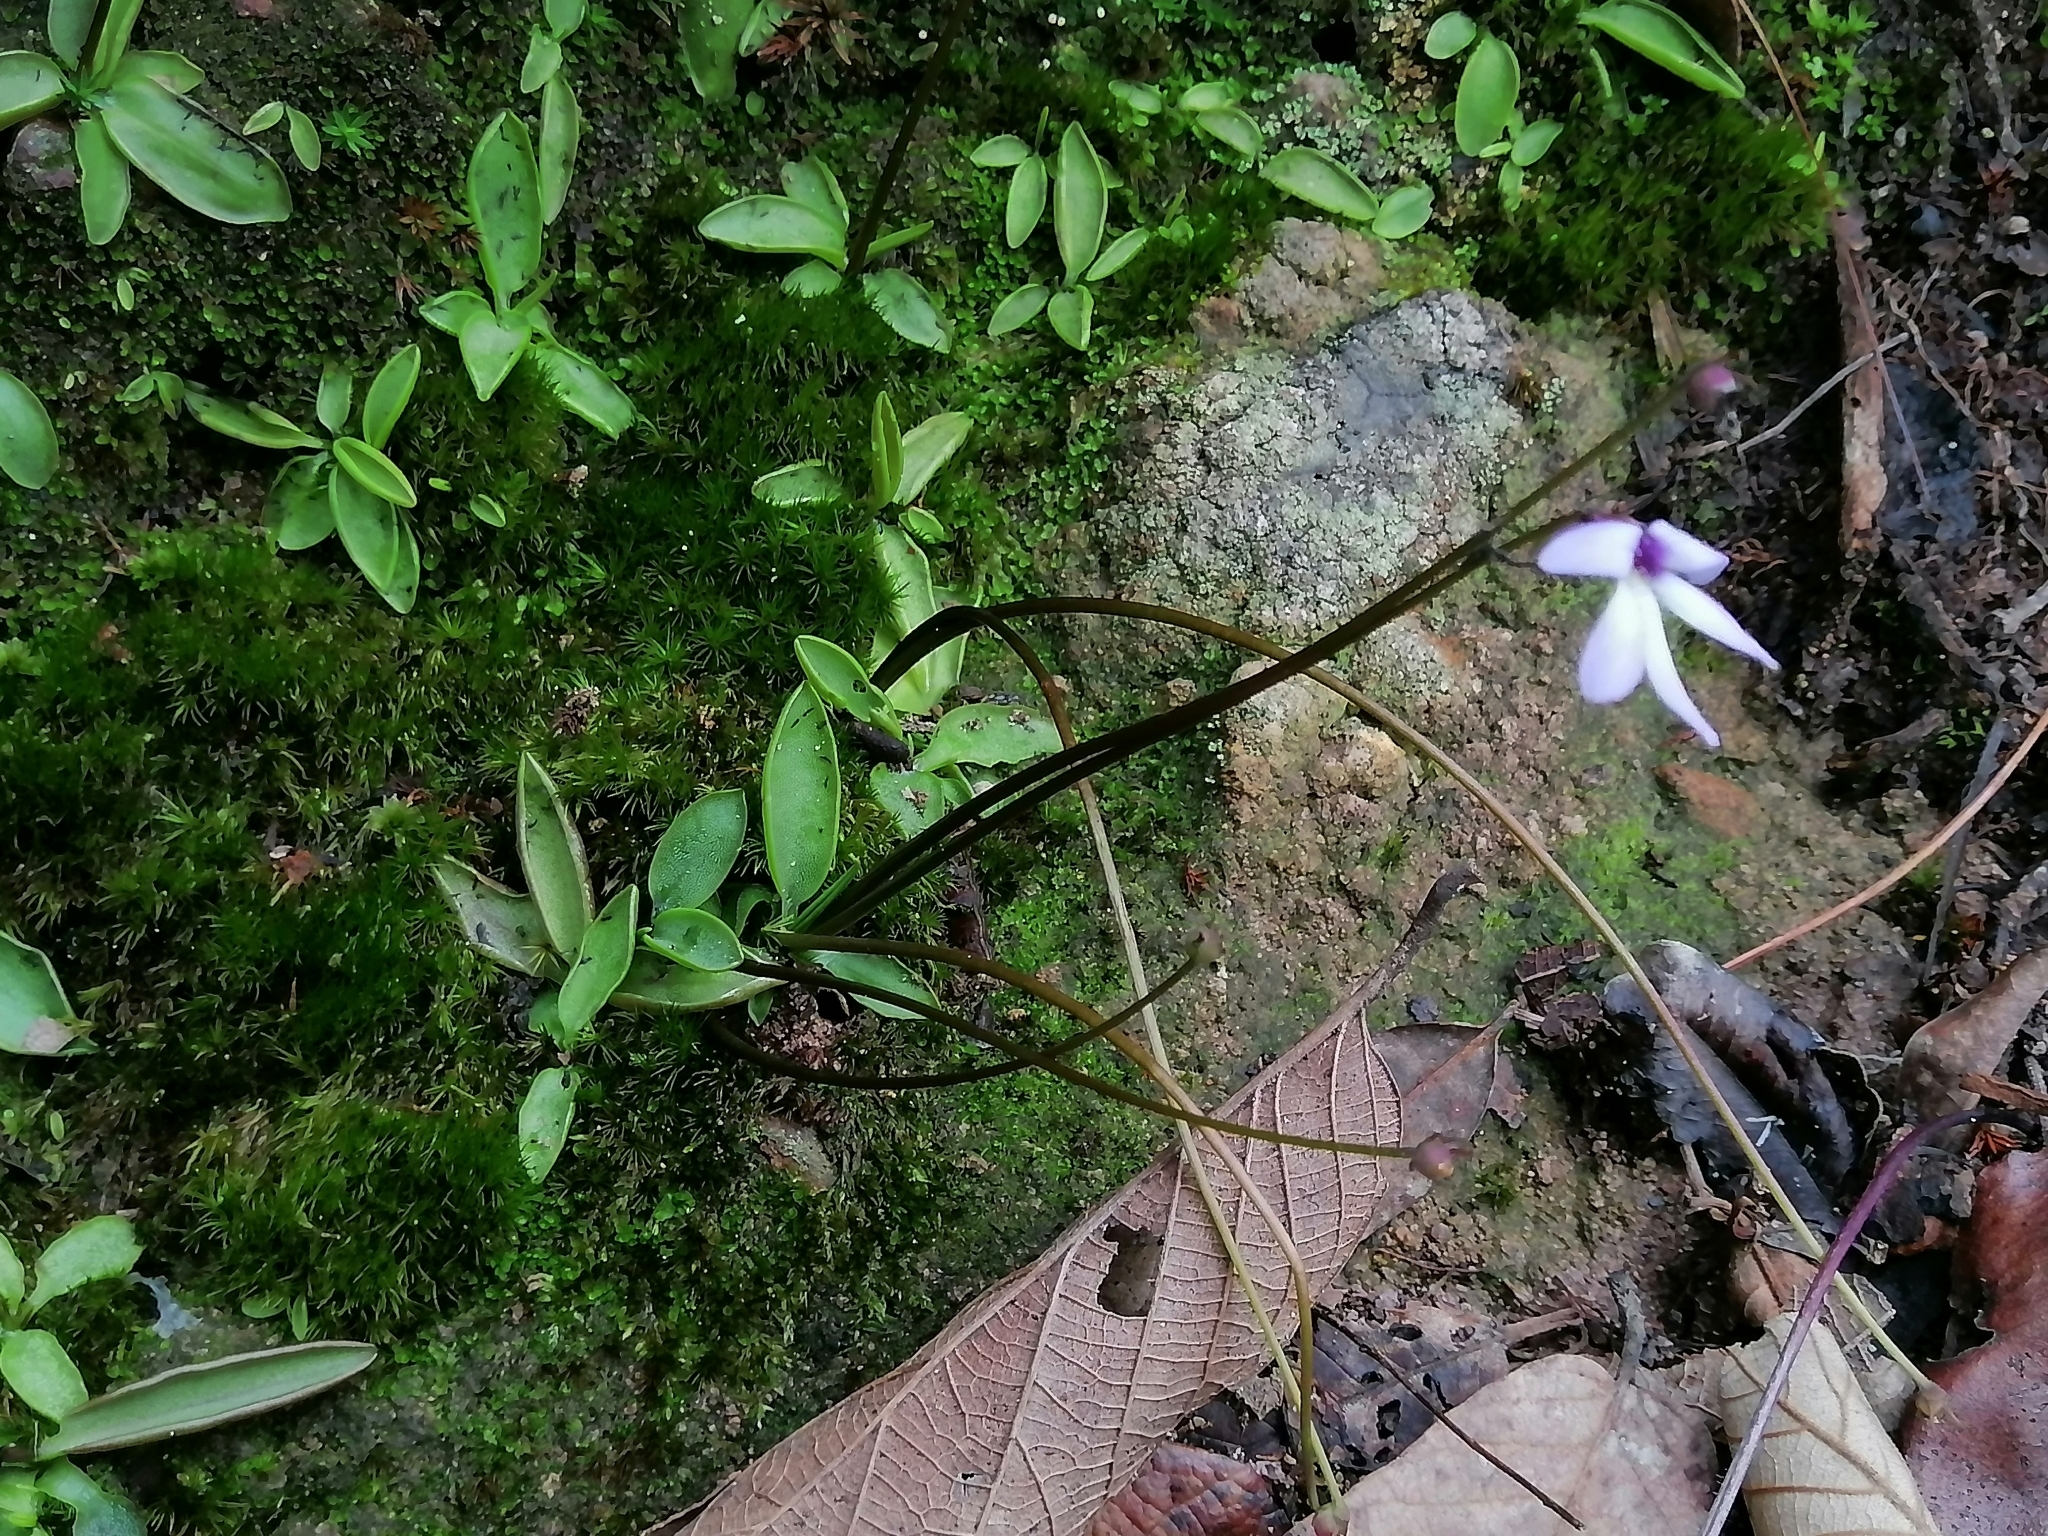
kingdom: Plantae
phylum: Tracheophyta
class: Magnoliopsida
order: Lamiales
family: Lentibulariaceae
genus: Pinguicula
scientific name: Pinguicula parvifolia
